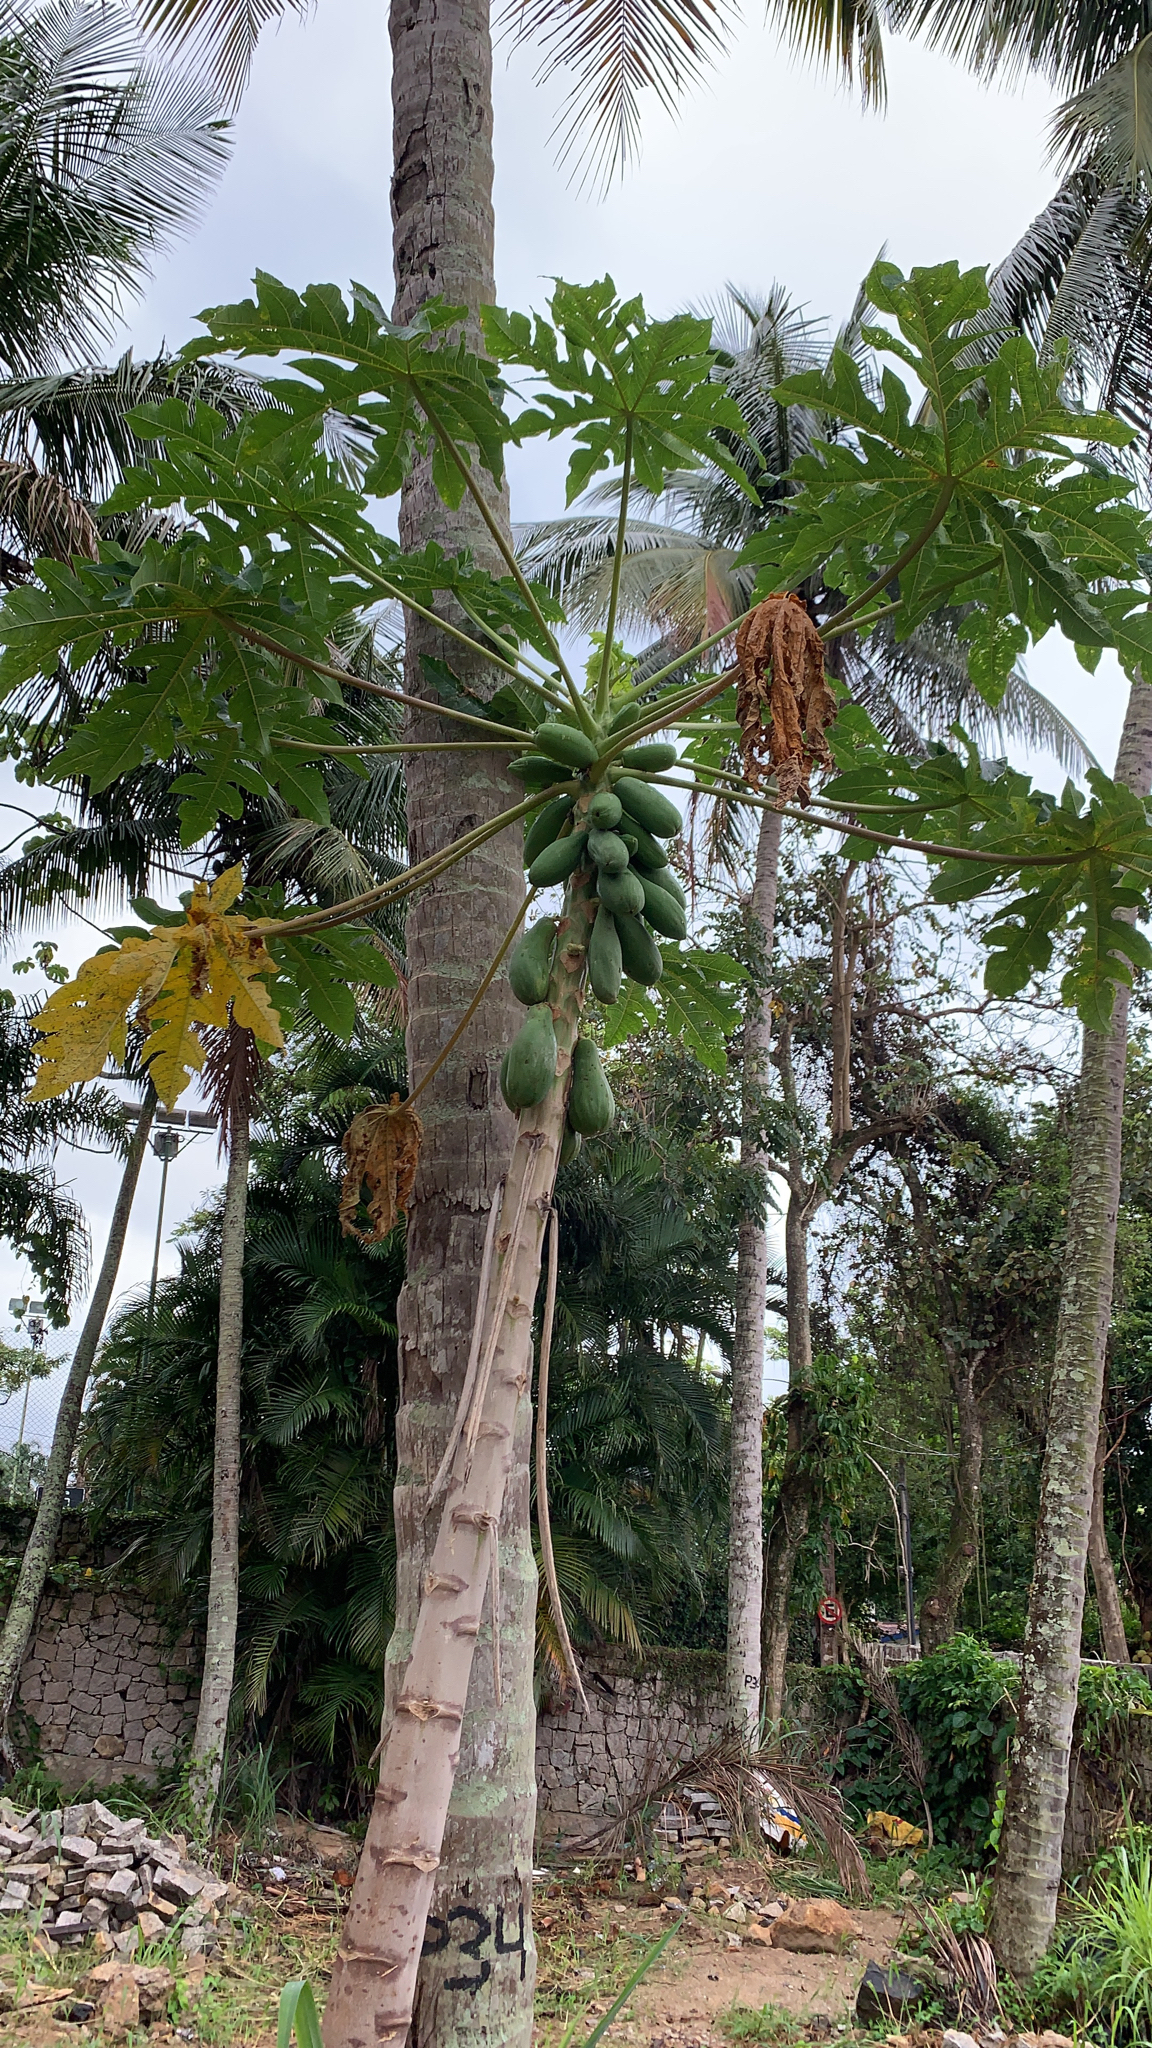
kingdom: Plantae
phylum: Tracheophyta
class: Magnoliopsida
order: Brassicales
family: Caricaceae
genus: Carica
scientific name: Carica papaya
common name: Papaya
